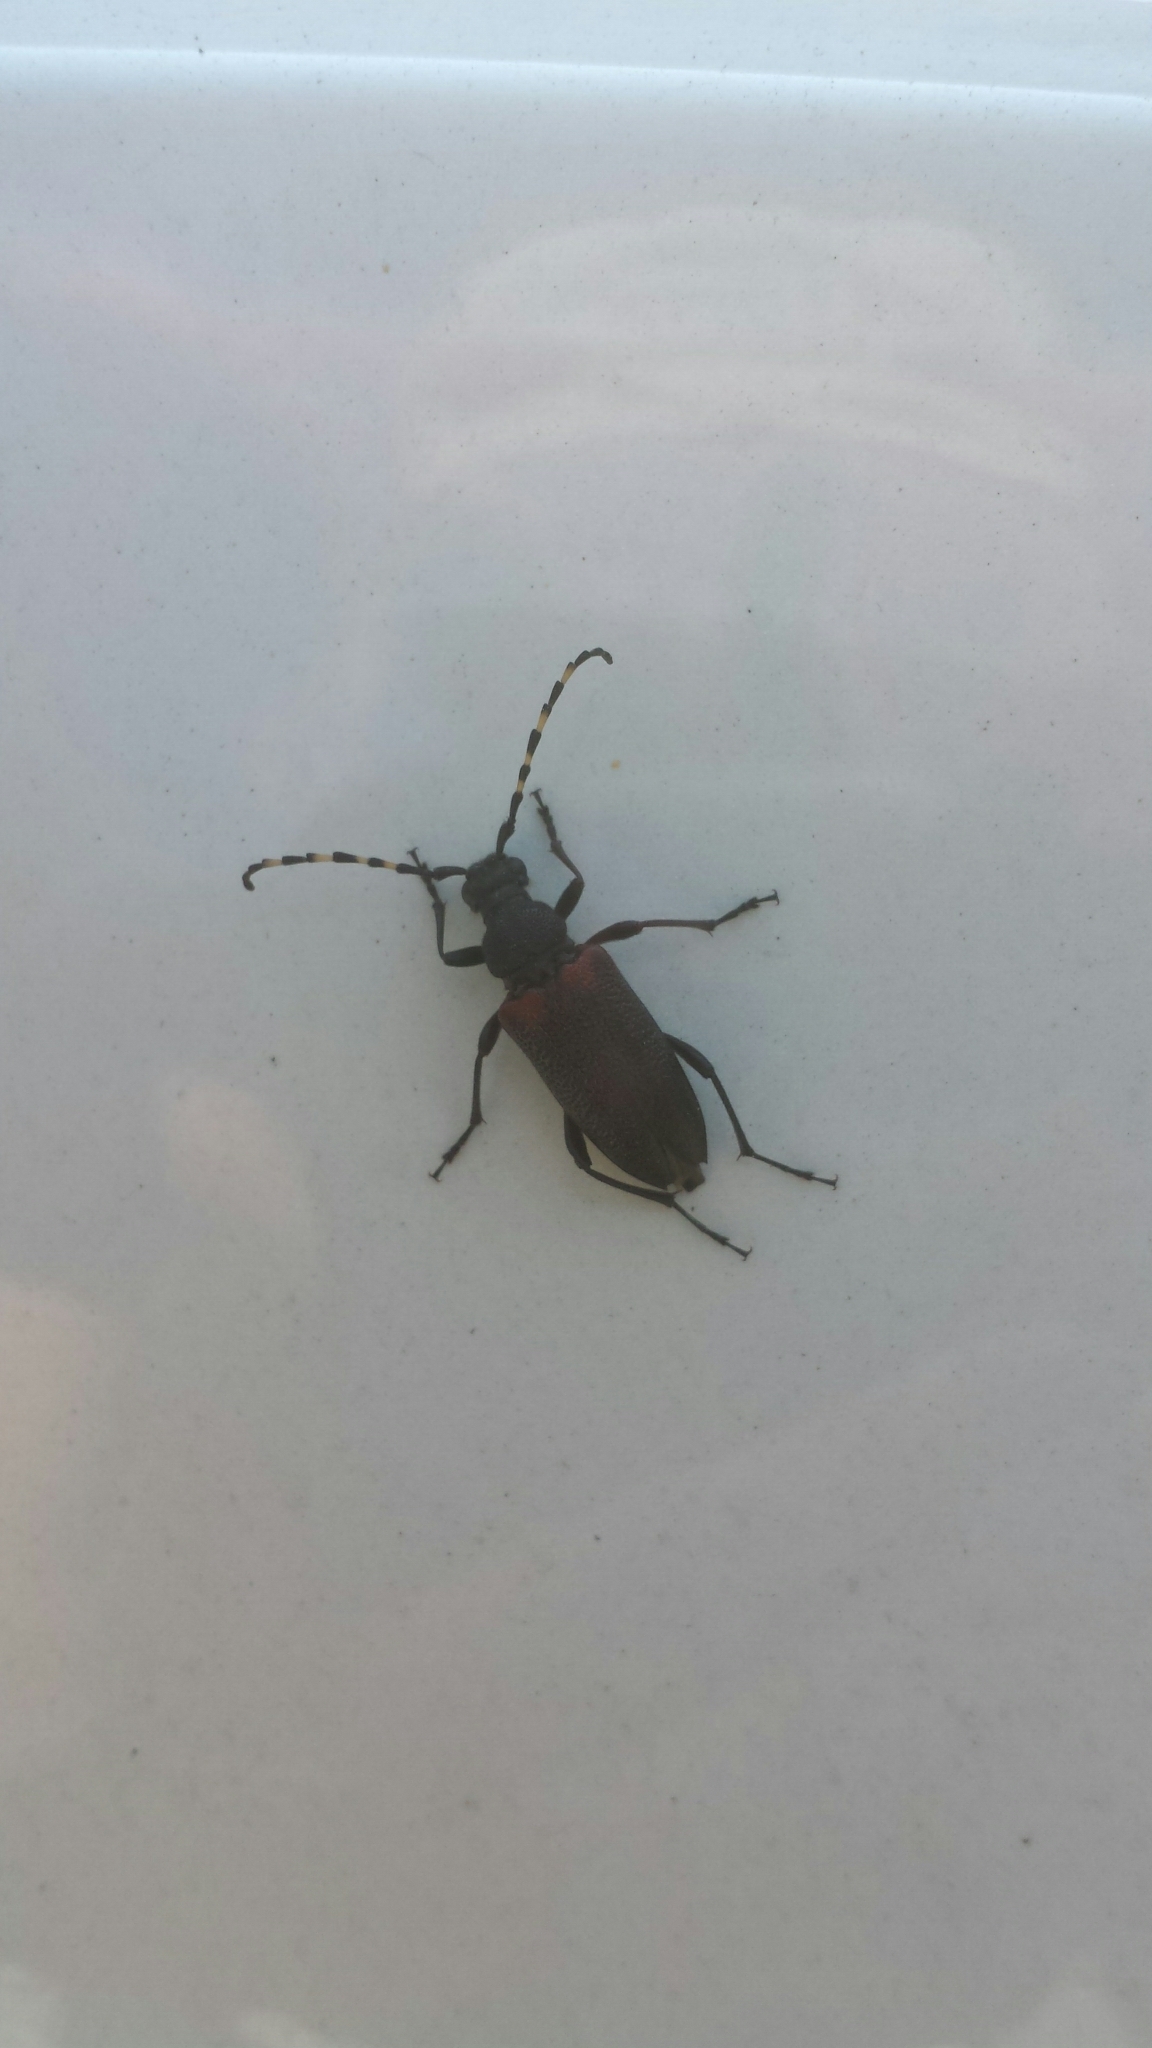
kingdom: Animalia
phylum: Arthropoda
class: Insecta
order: Coleoptera
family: Cerambycidae
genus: Stictoleptura
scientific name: Stictoleptura canadensis
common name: Red-shouldered pine borer
